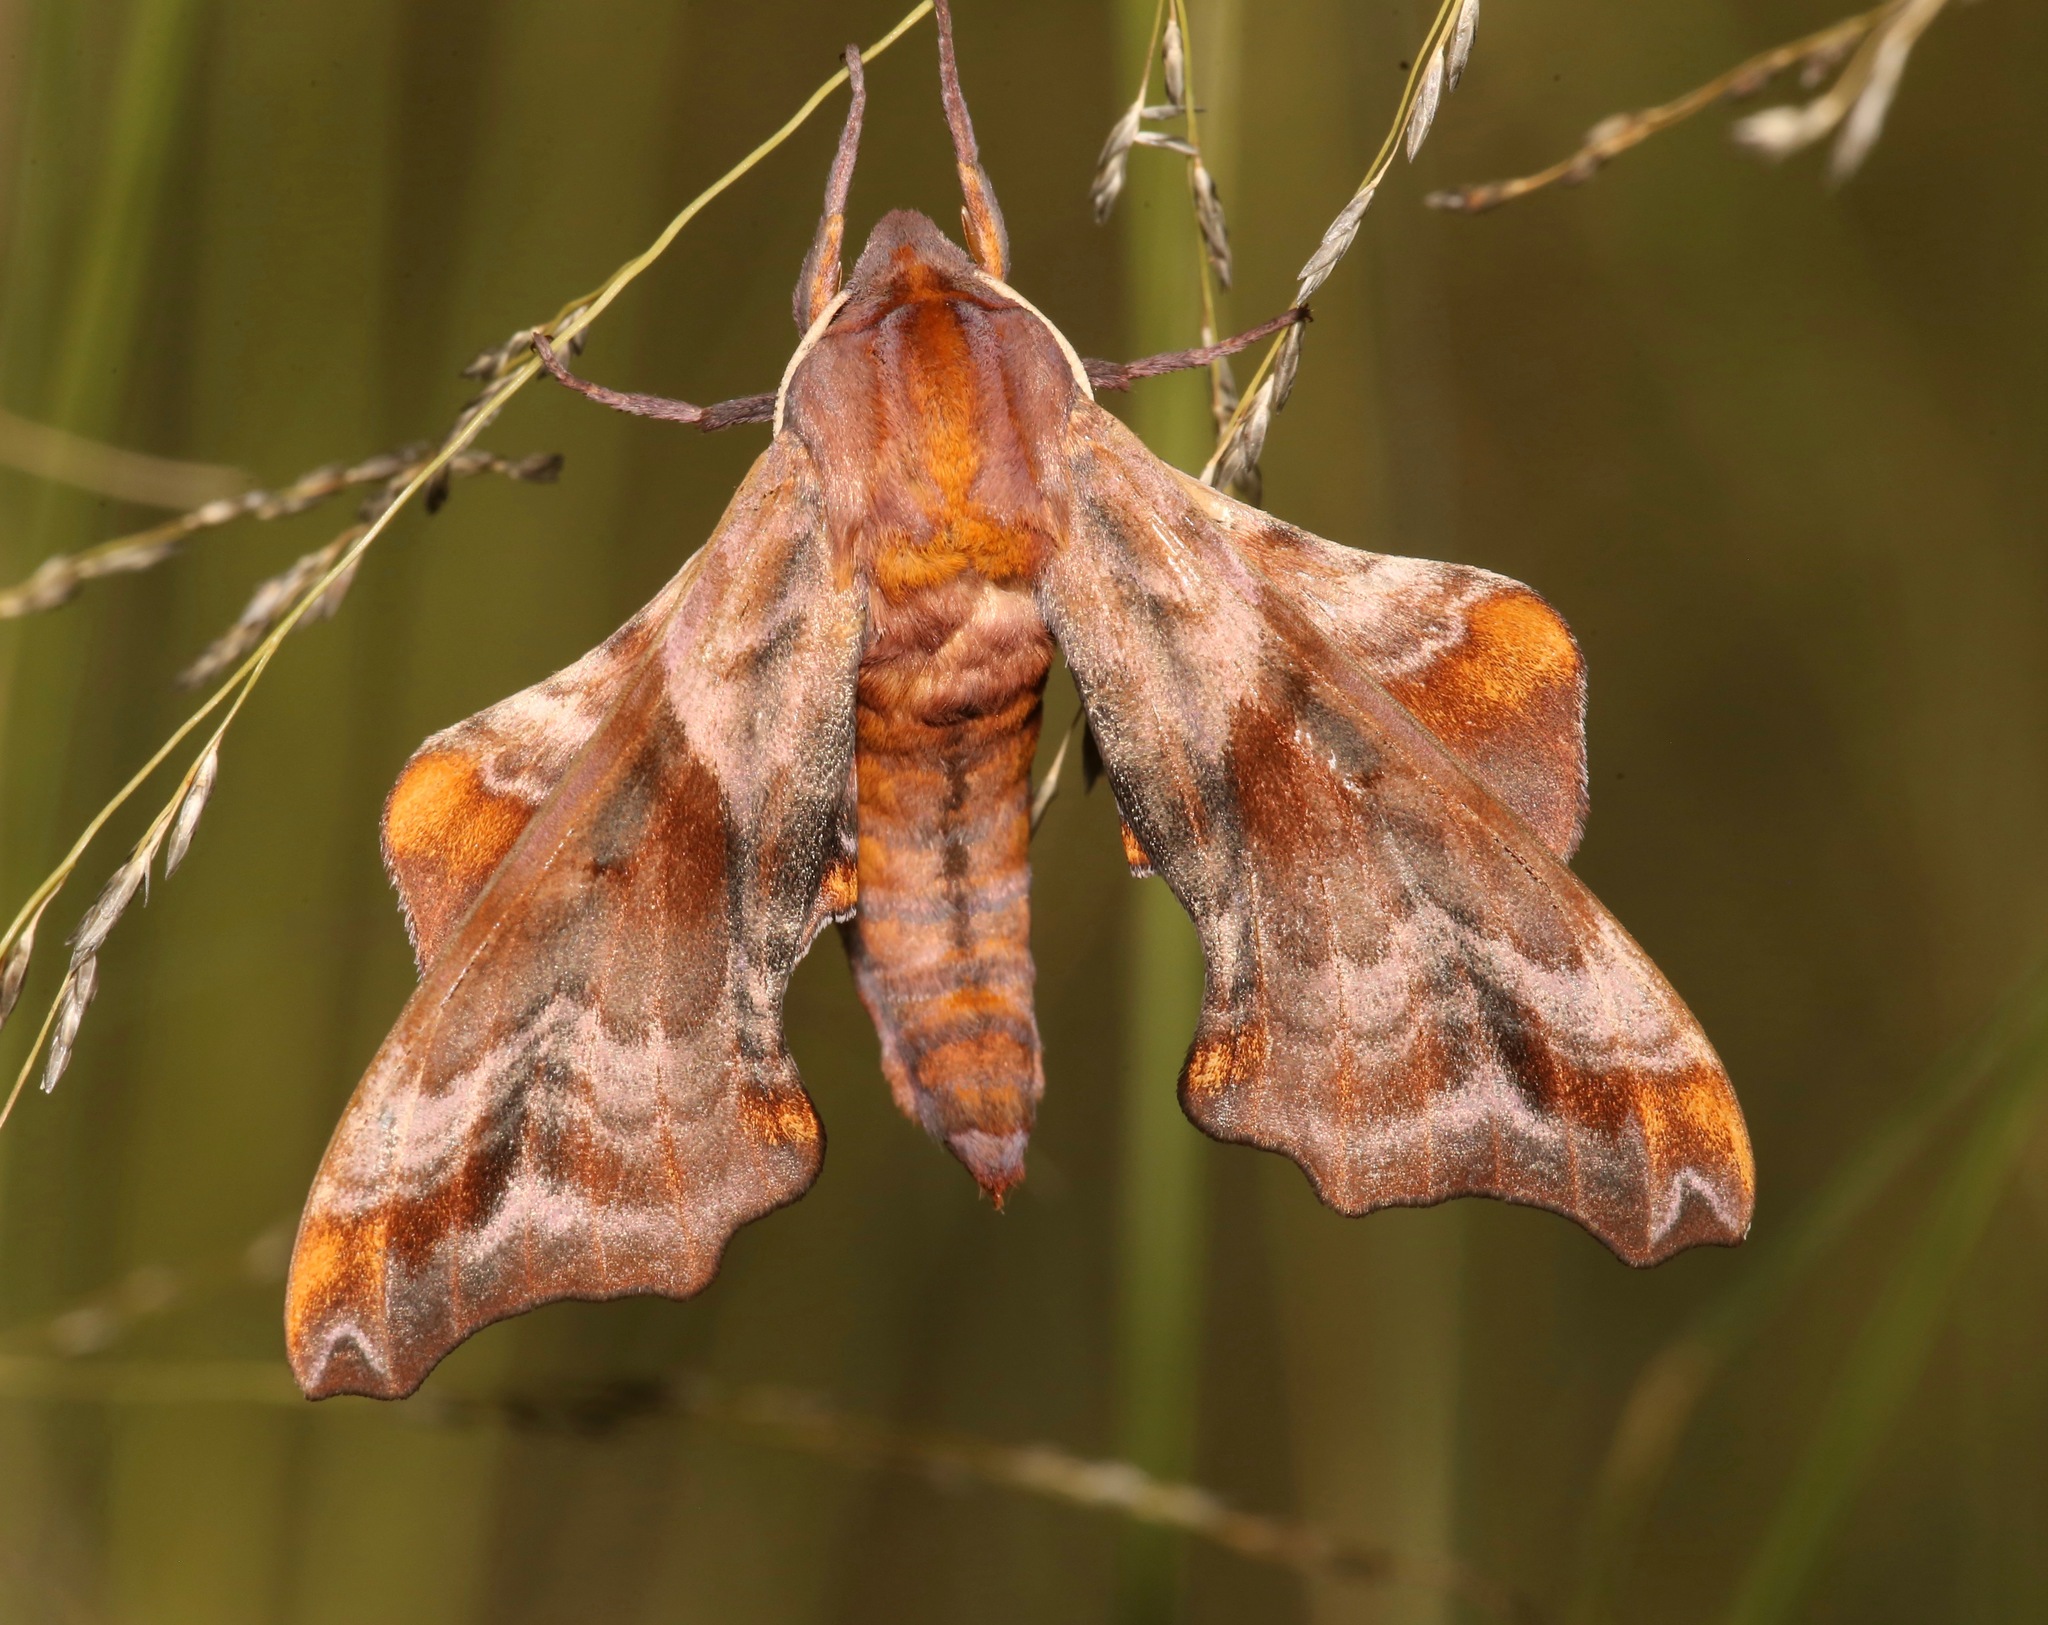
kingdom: Animalia
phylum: Arthropoda
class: Insecta
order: Lepidoptera
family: Sphingidae
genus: Paonias
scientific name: Paonias myops
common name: Small-eyed sphinx
